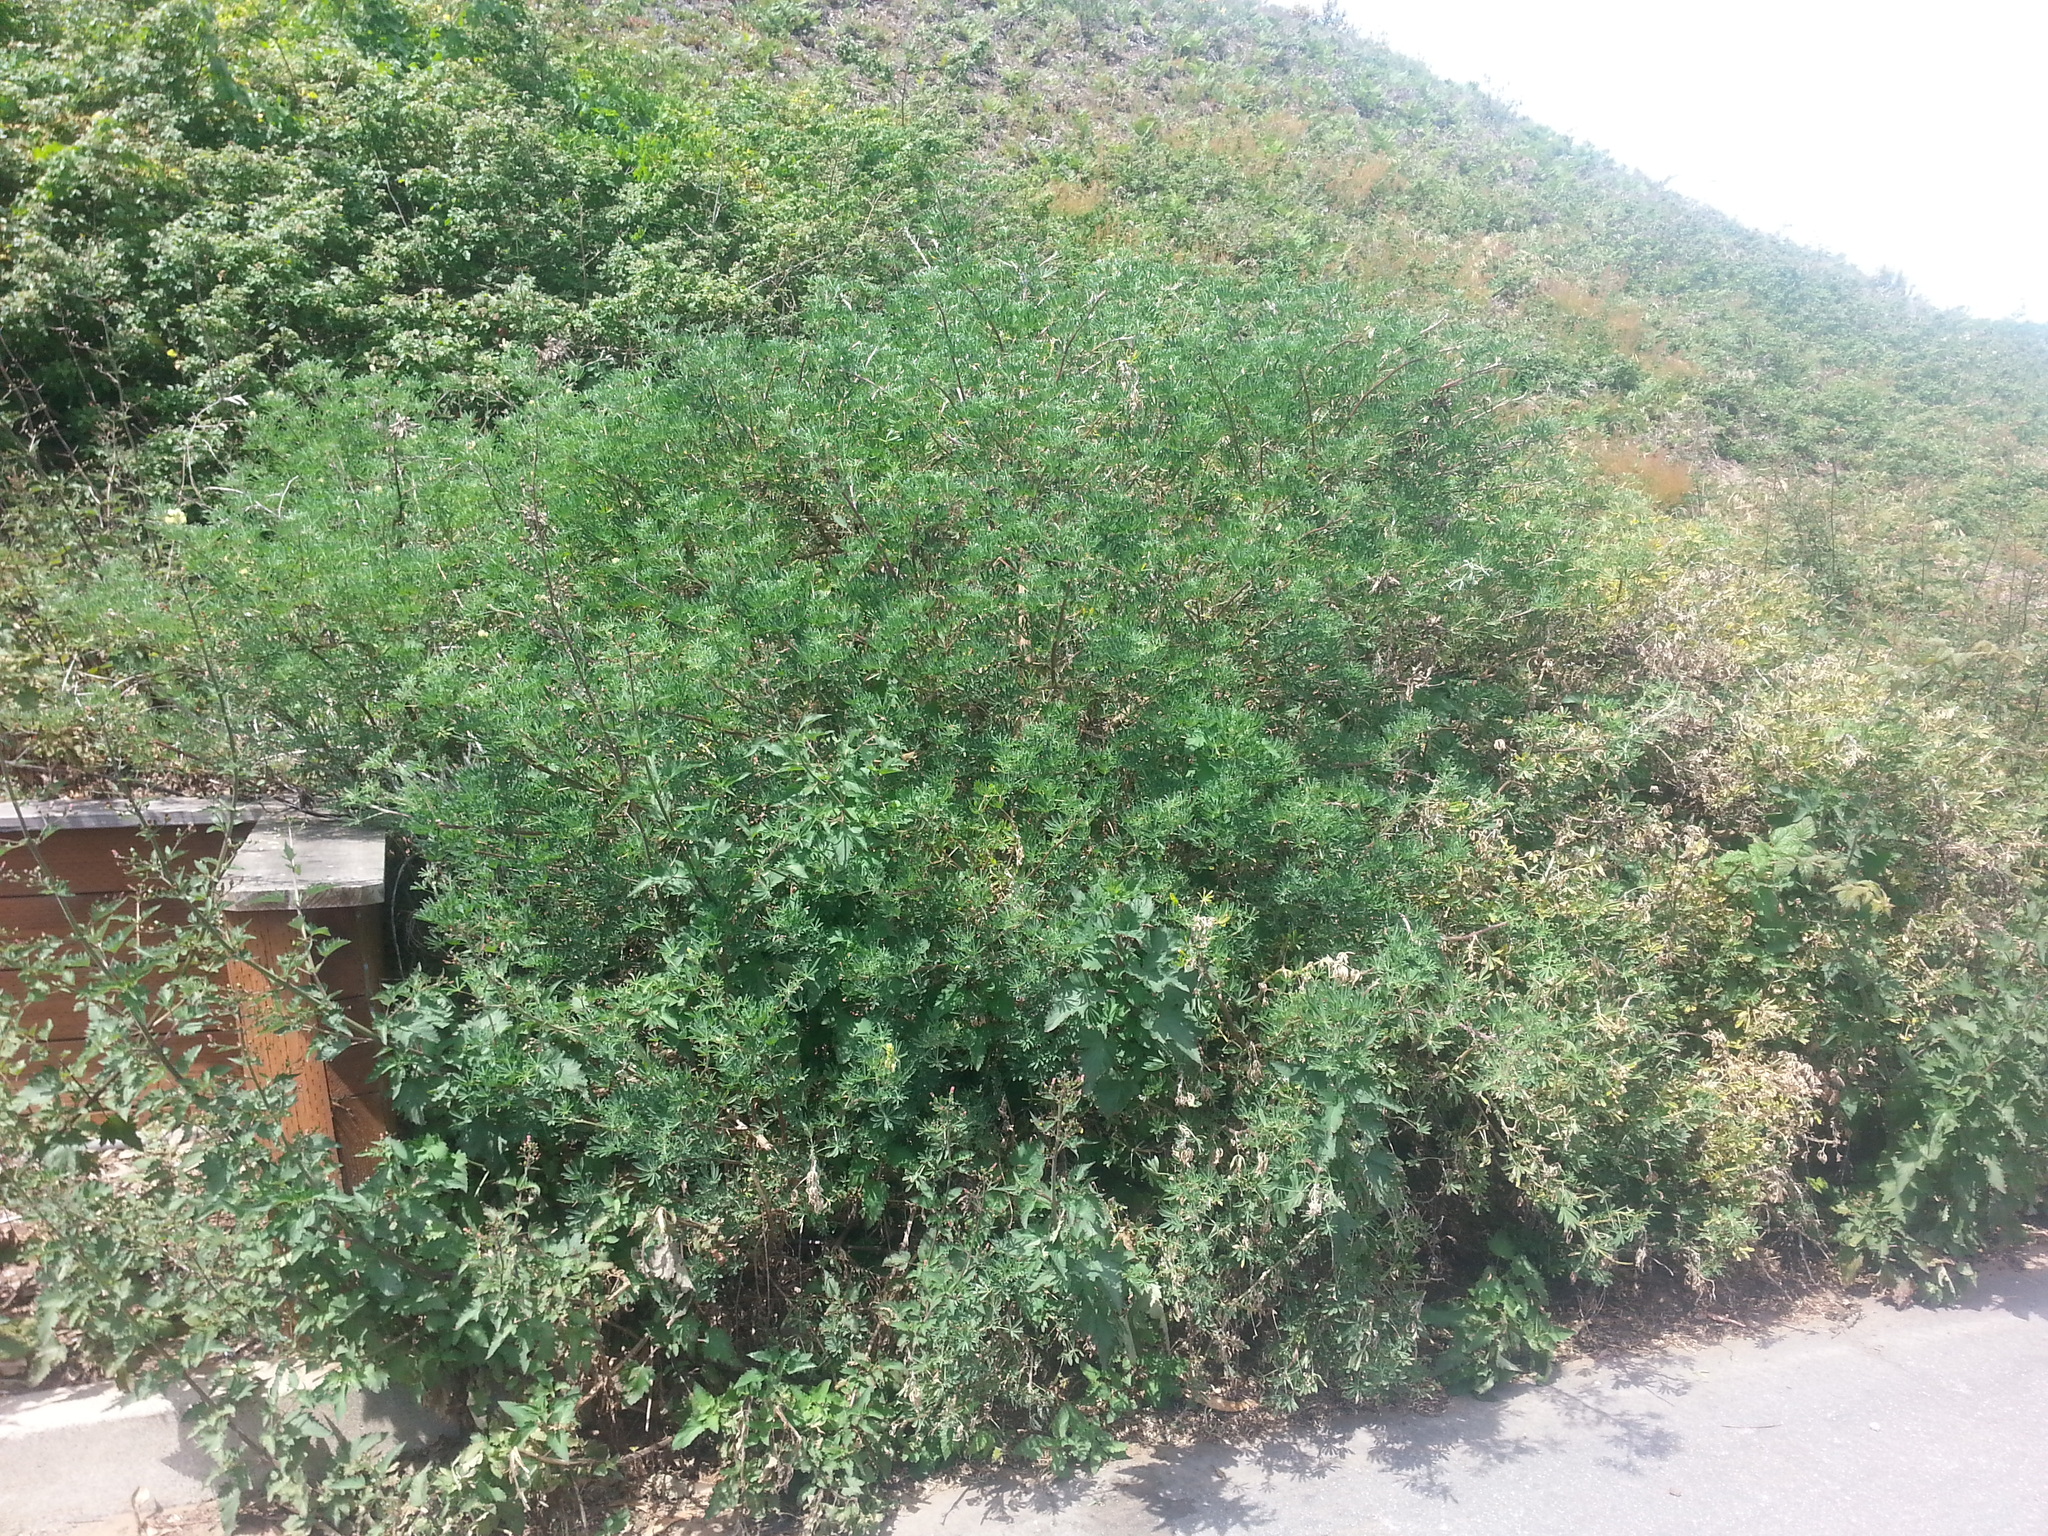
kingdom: Plantae
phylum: Tracheophyta
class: Magnoliopsida
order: Fabales
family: Fabaceae
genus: Lupinus
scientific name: Lupinus arboreus
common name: Yellow bush lupine
